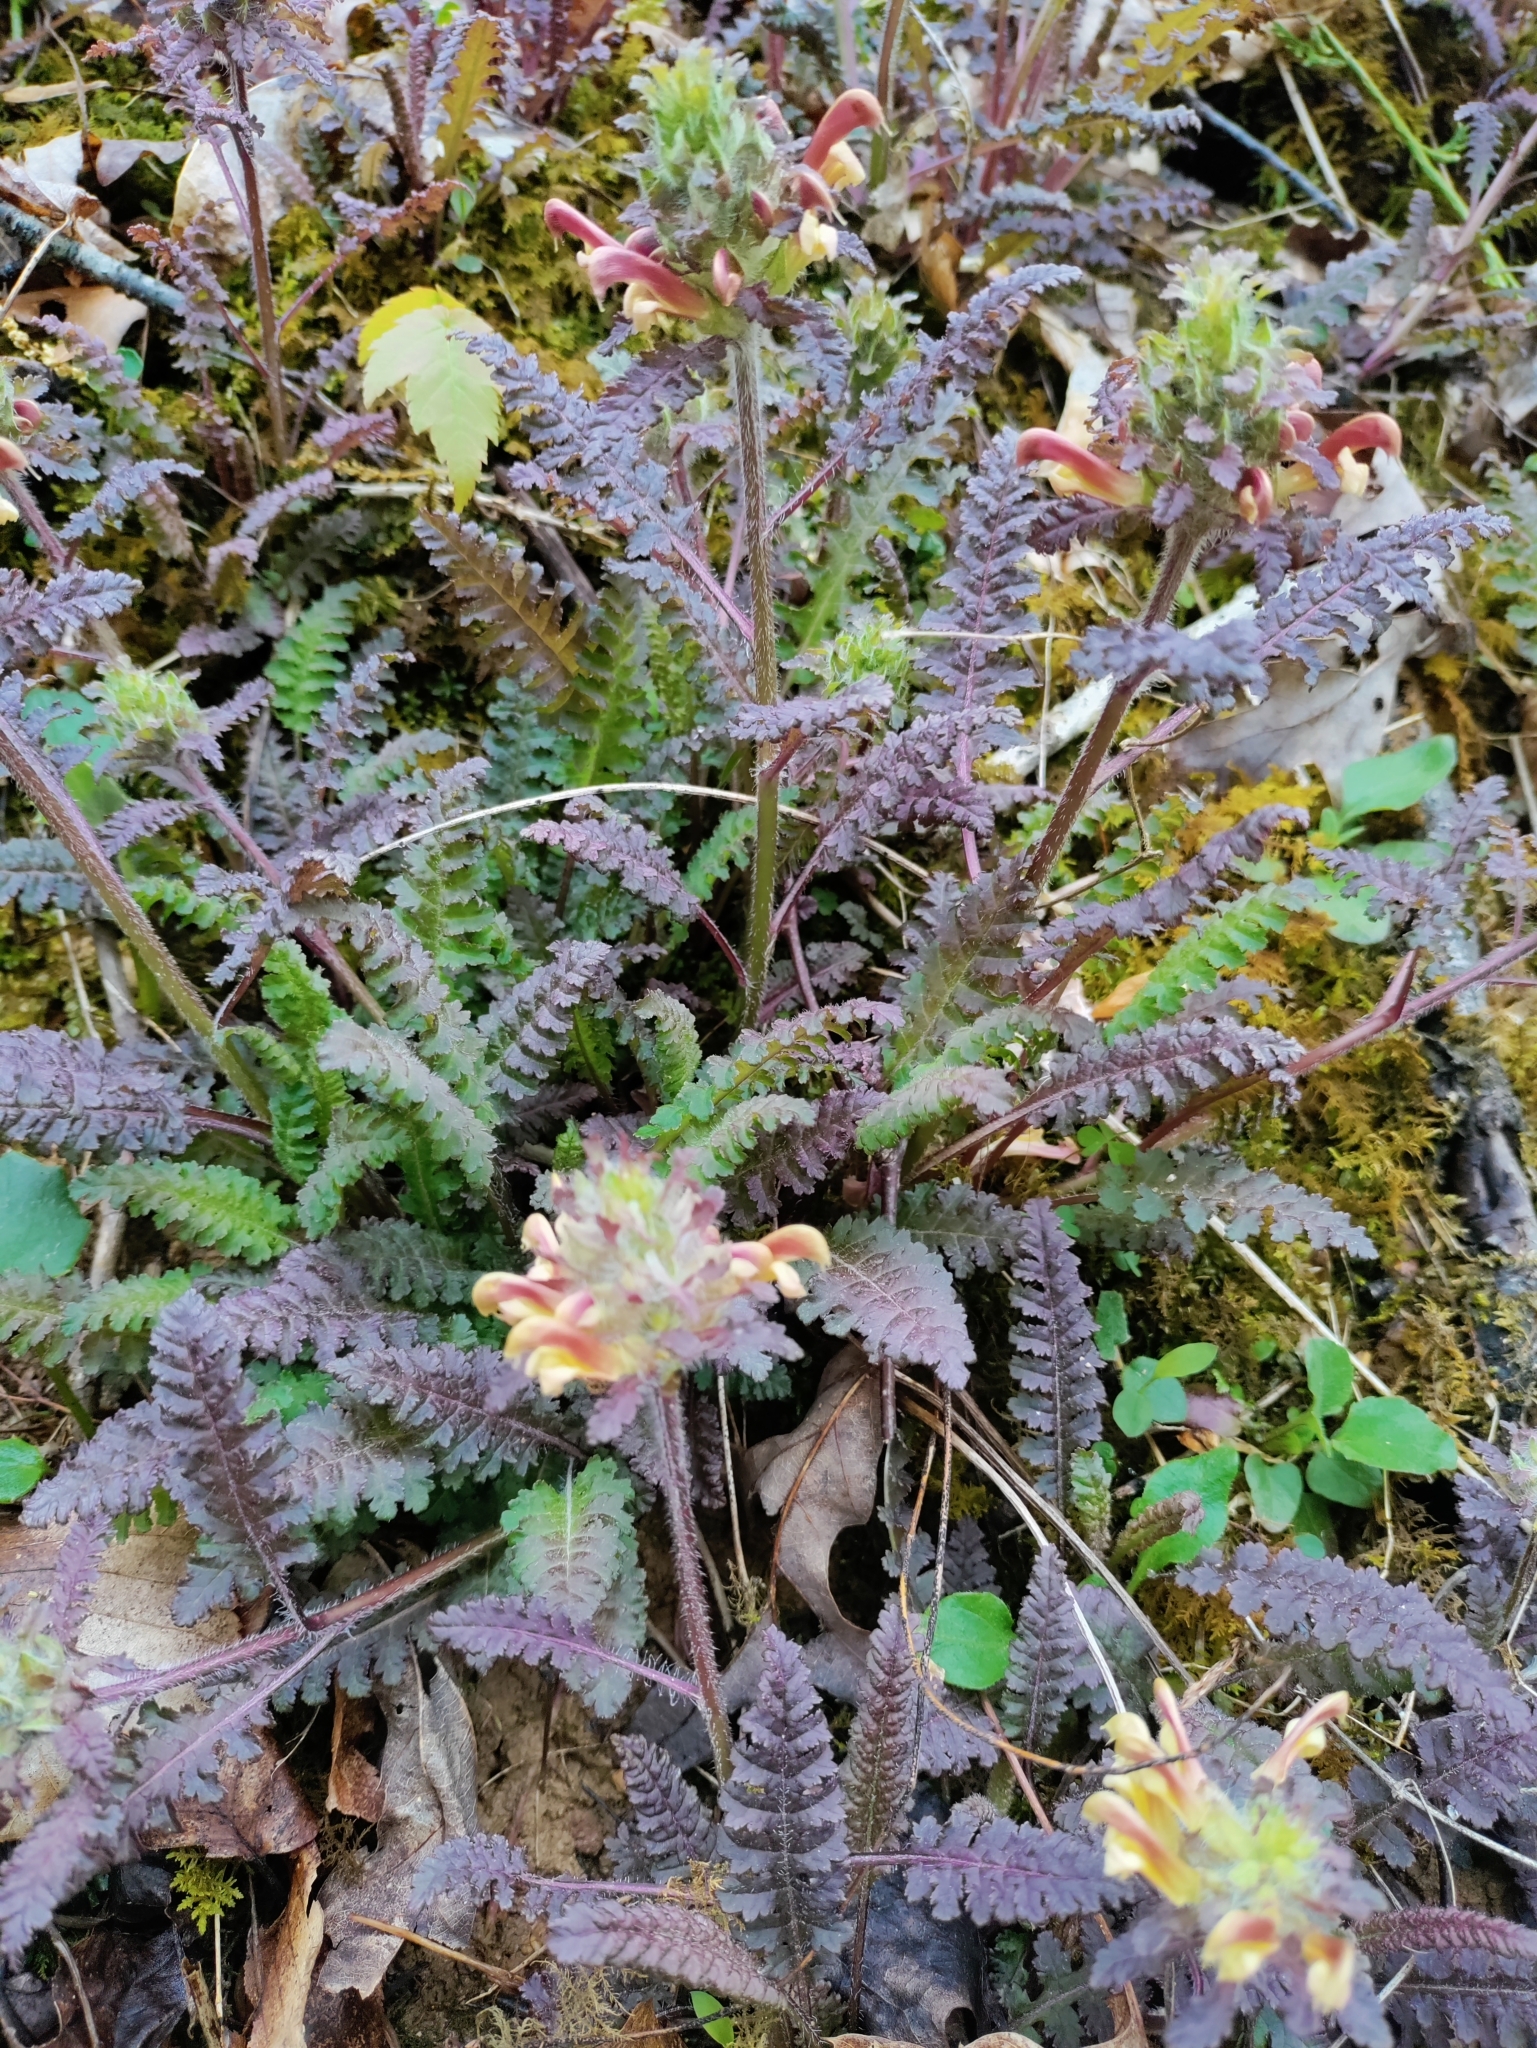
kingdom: Plantae
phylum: Tracheophyta
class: Magnoliopsida
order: Lamiales
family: Orobanchaceae
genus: Pedicularis
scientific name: Pedicularis canadensis
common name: Early lousewort
